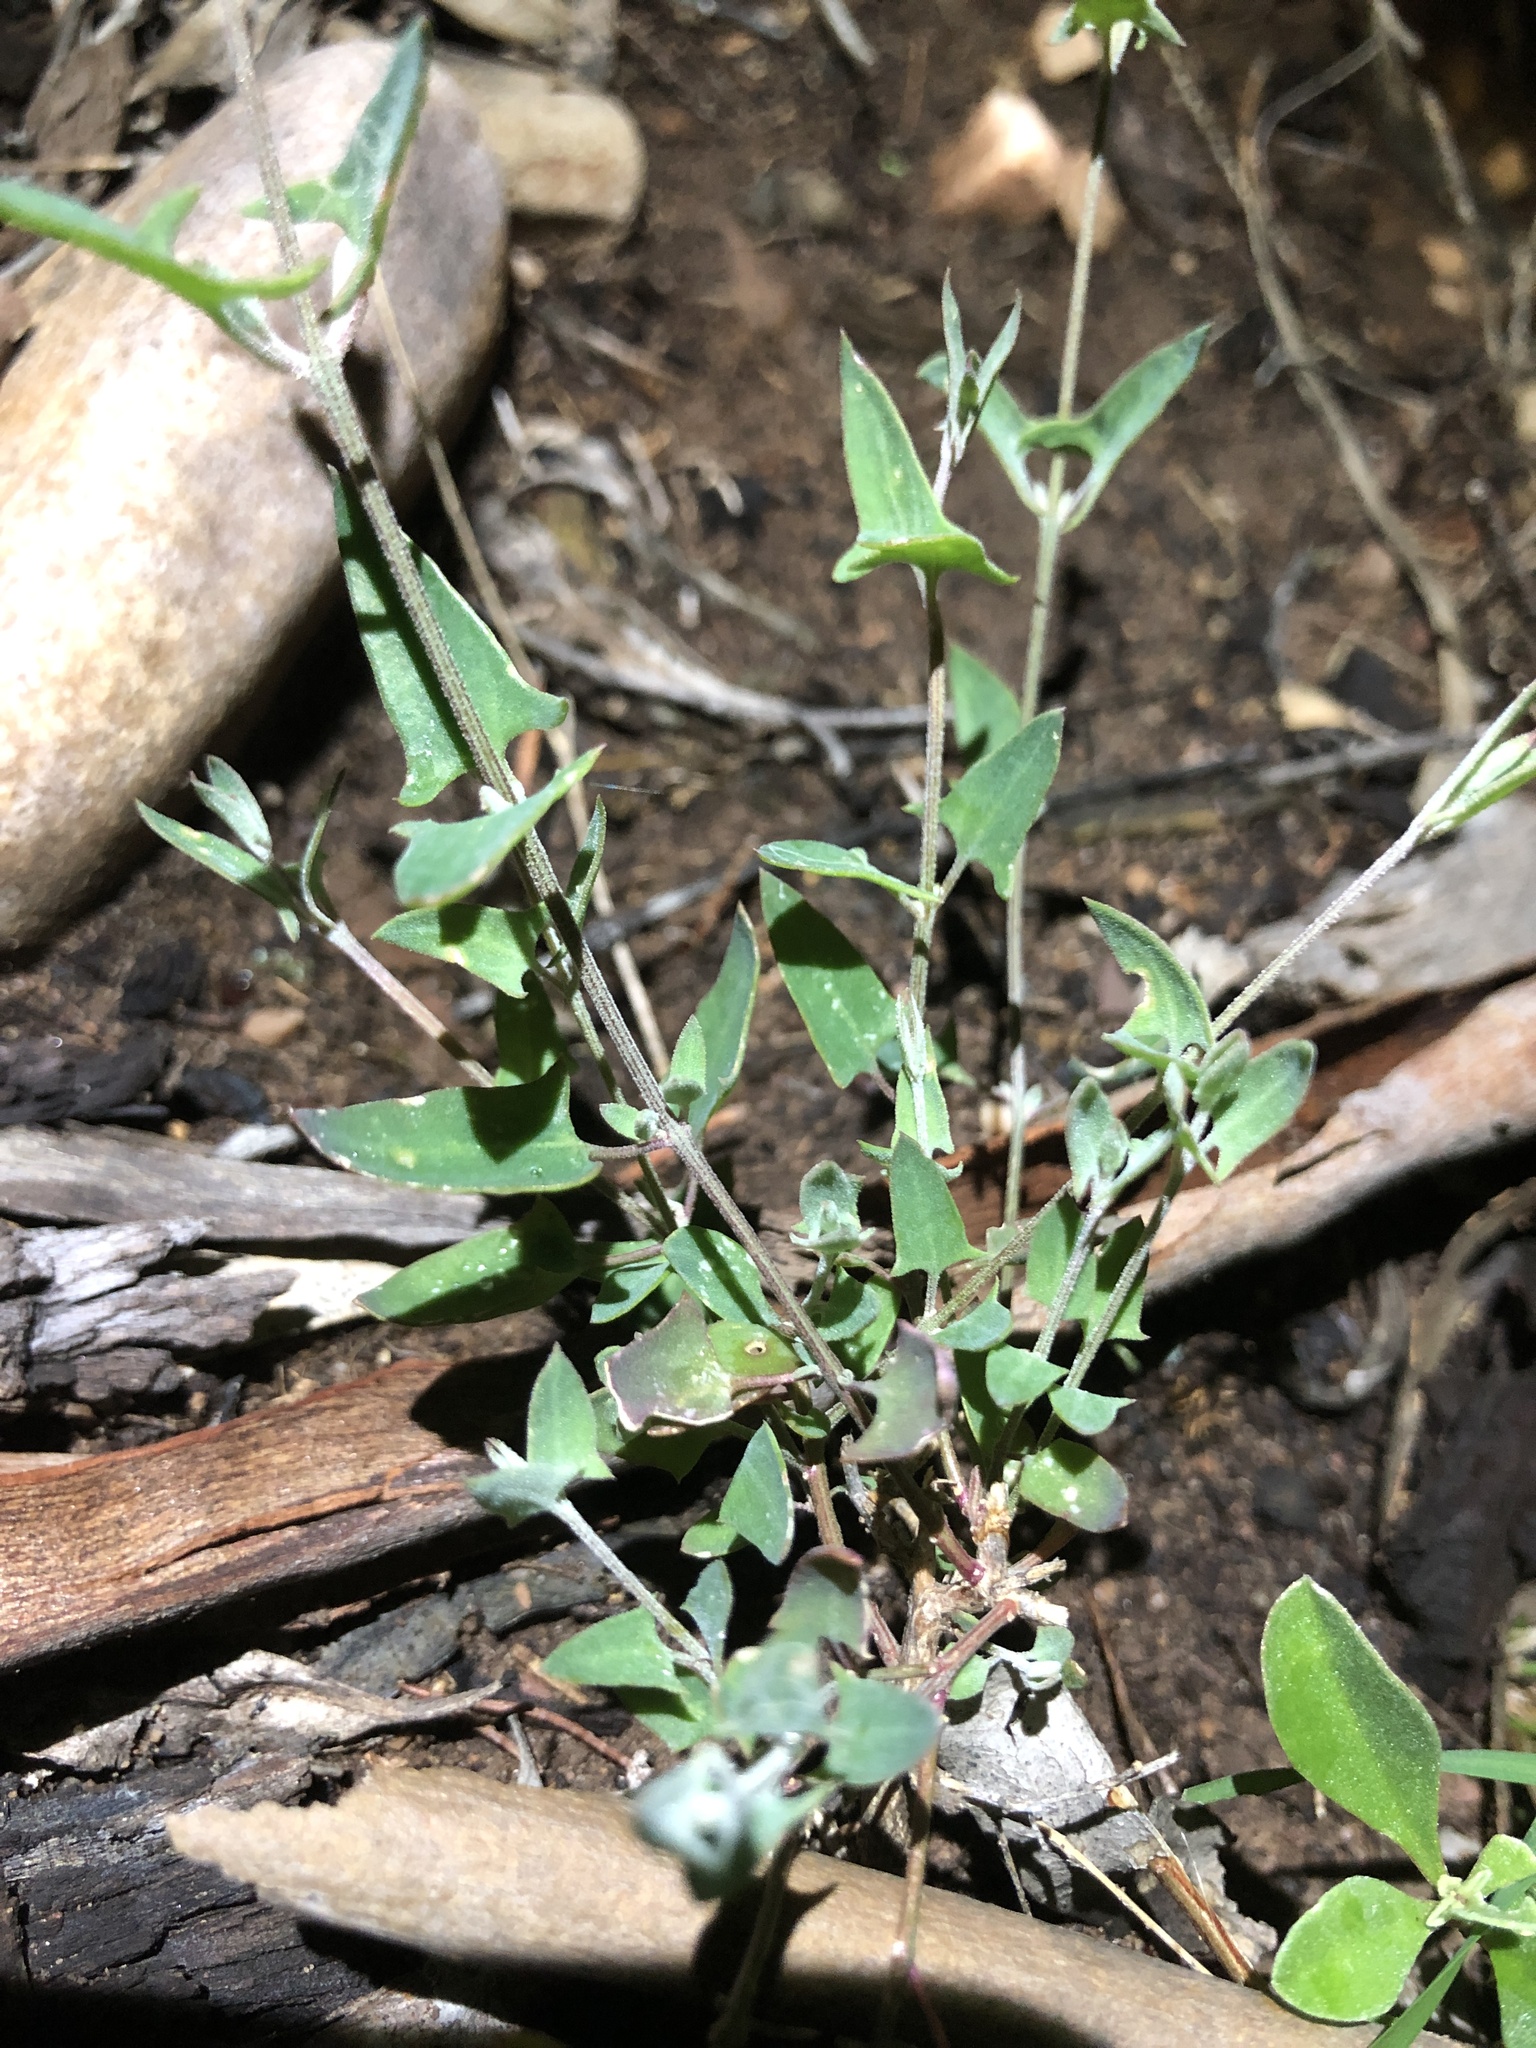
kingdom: Plantae
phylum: Tracheophyta
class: Magnoliopsida
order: Caryophyllales
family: Amaranthaceae
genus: Chenopodium
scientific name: Chenopodium nutans
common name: Climbing-saltbush
